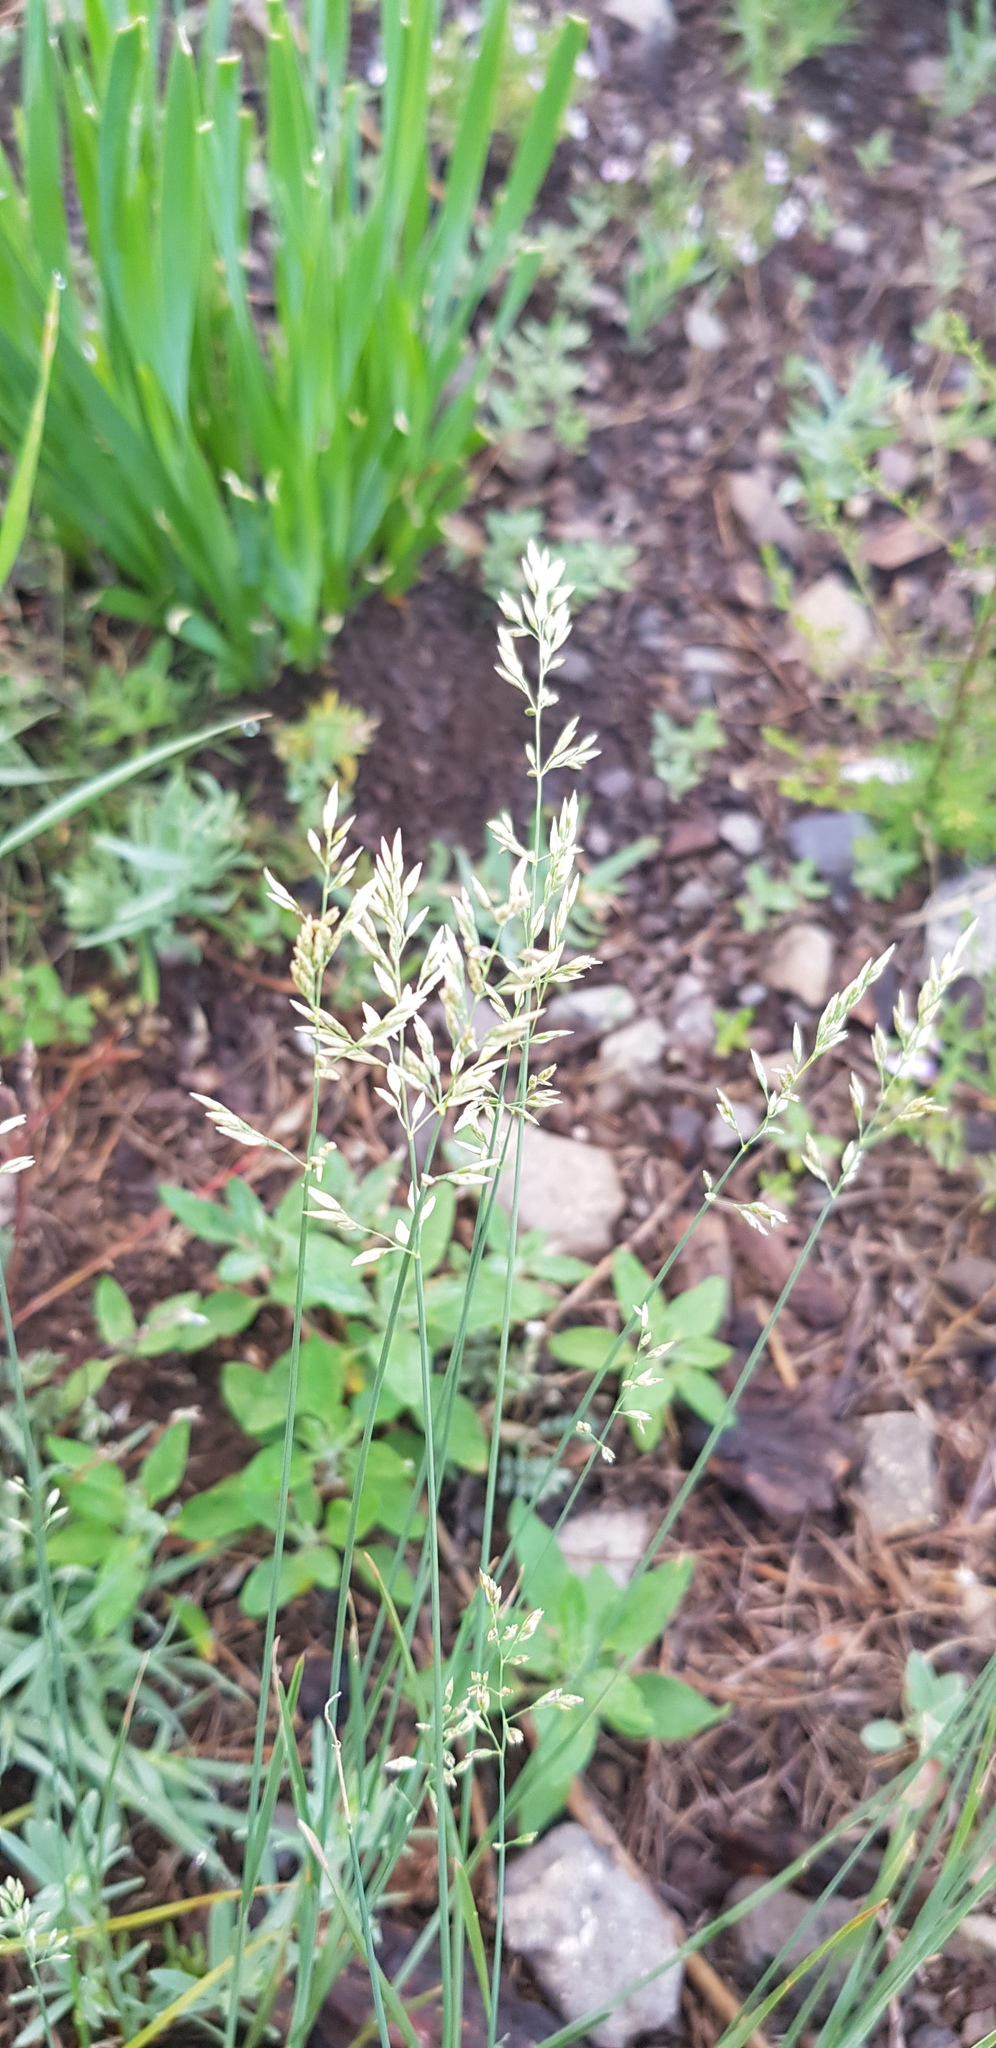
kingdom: Plantae
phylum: Tracheophyta
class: Liliopsida
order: Poales
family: Poaceae
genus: Poa
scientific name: Poa pratensis
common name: Kentucky bluegrass
